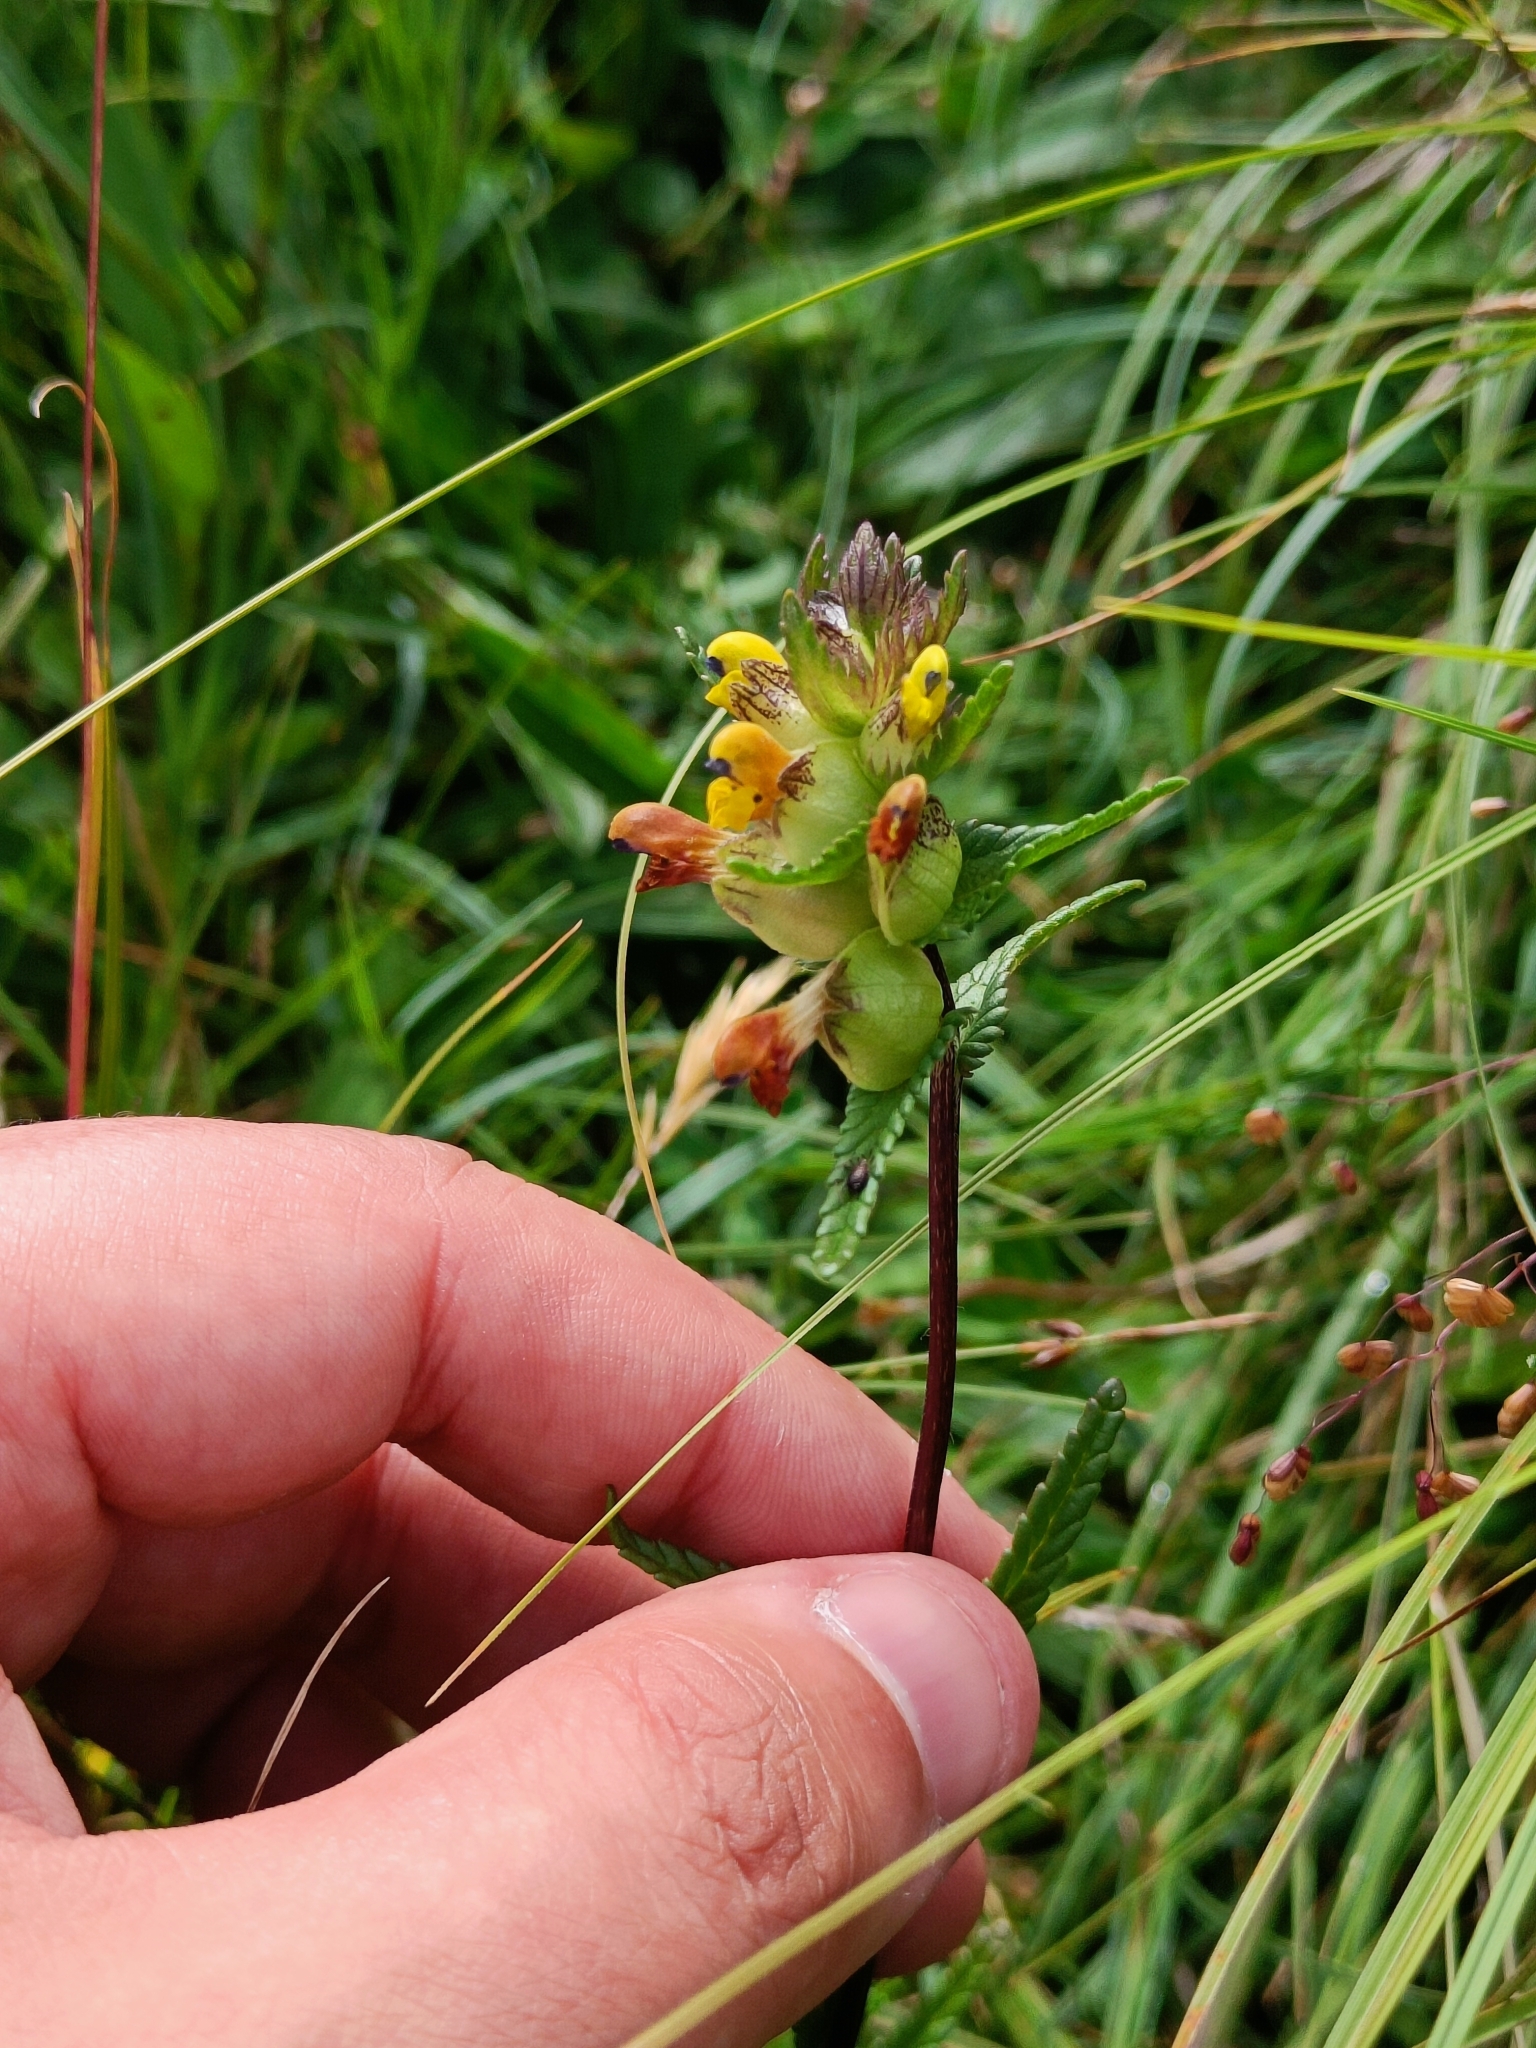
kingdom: Plantae
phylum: Tracheophyta
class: Magnoliopsida
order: Lamiales
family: Orobanchaceae
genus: Rhinanthus
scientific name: Rhinanthus minor
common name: Yellow-rattle
